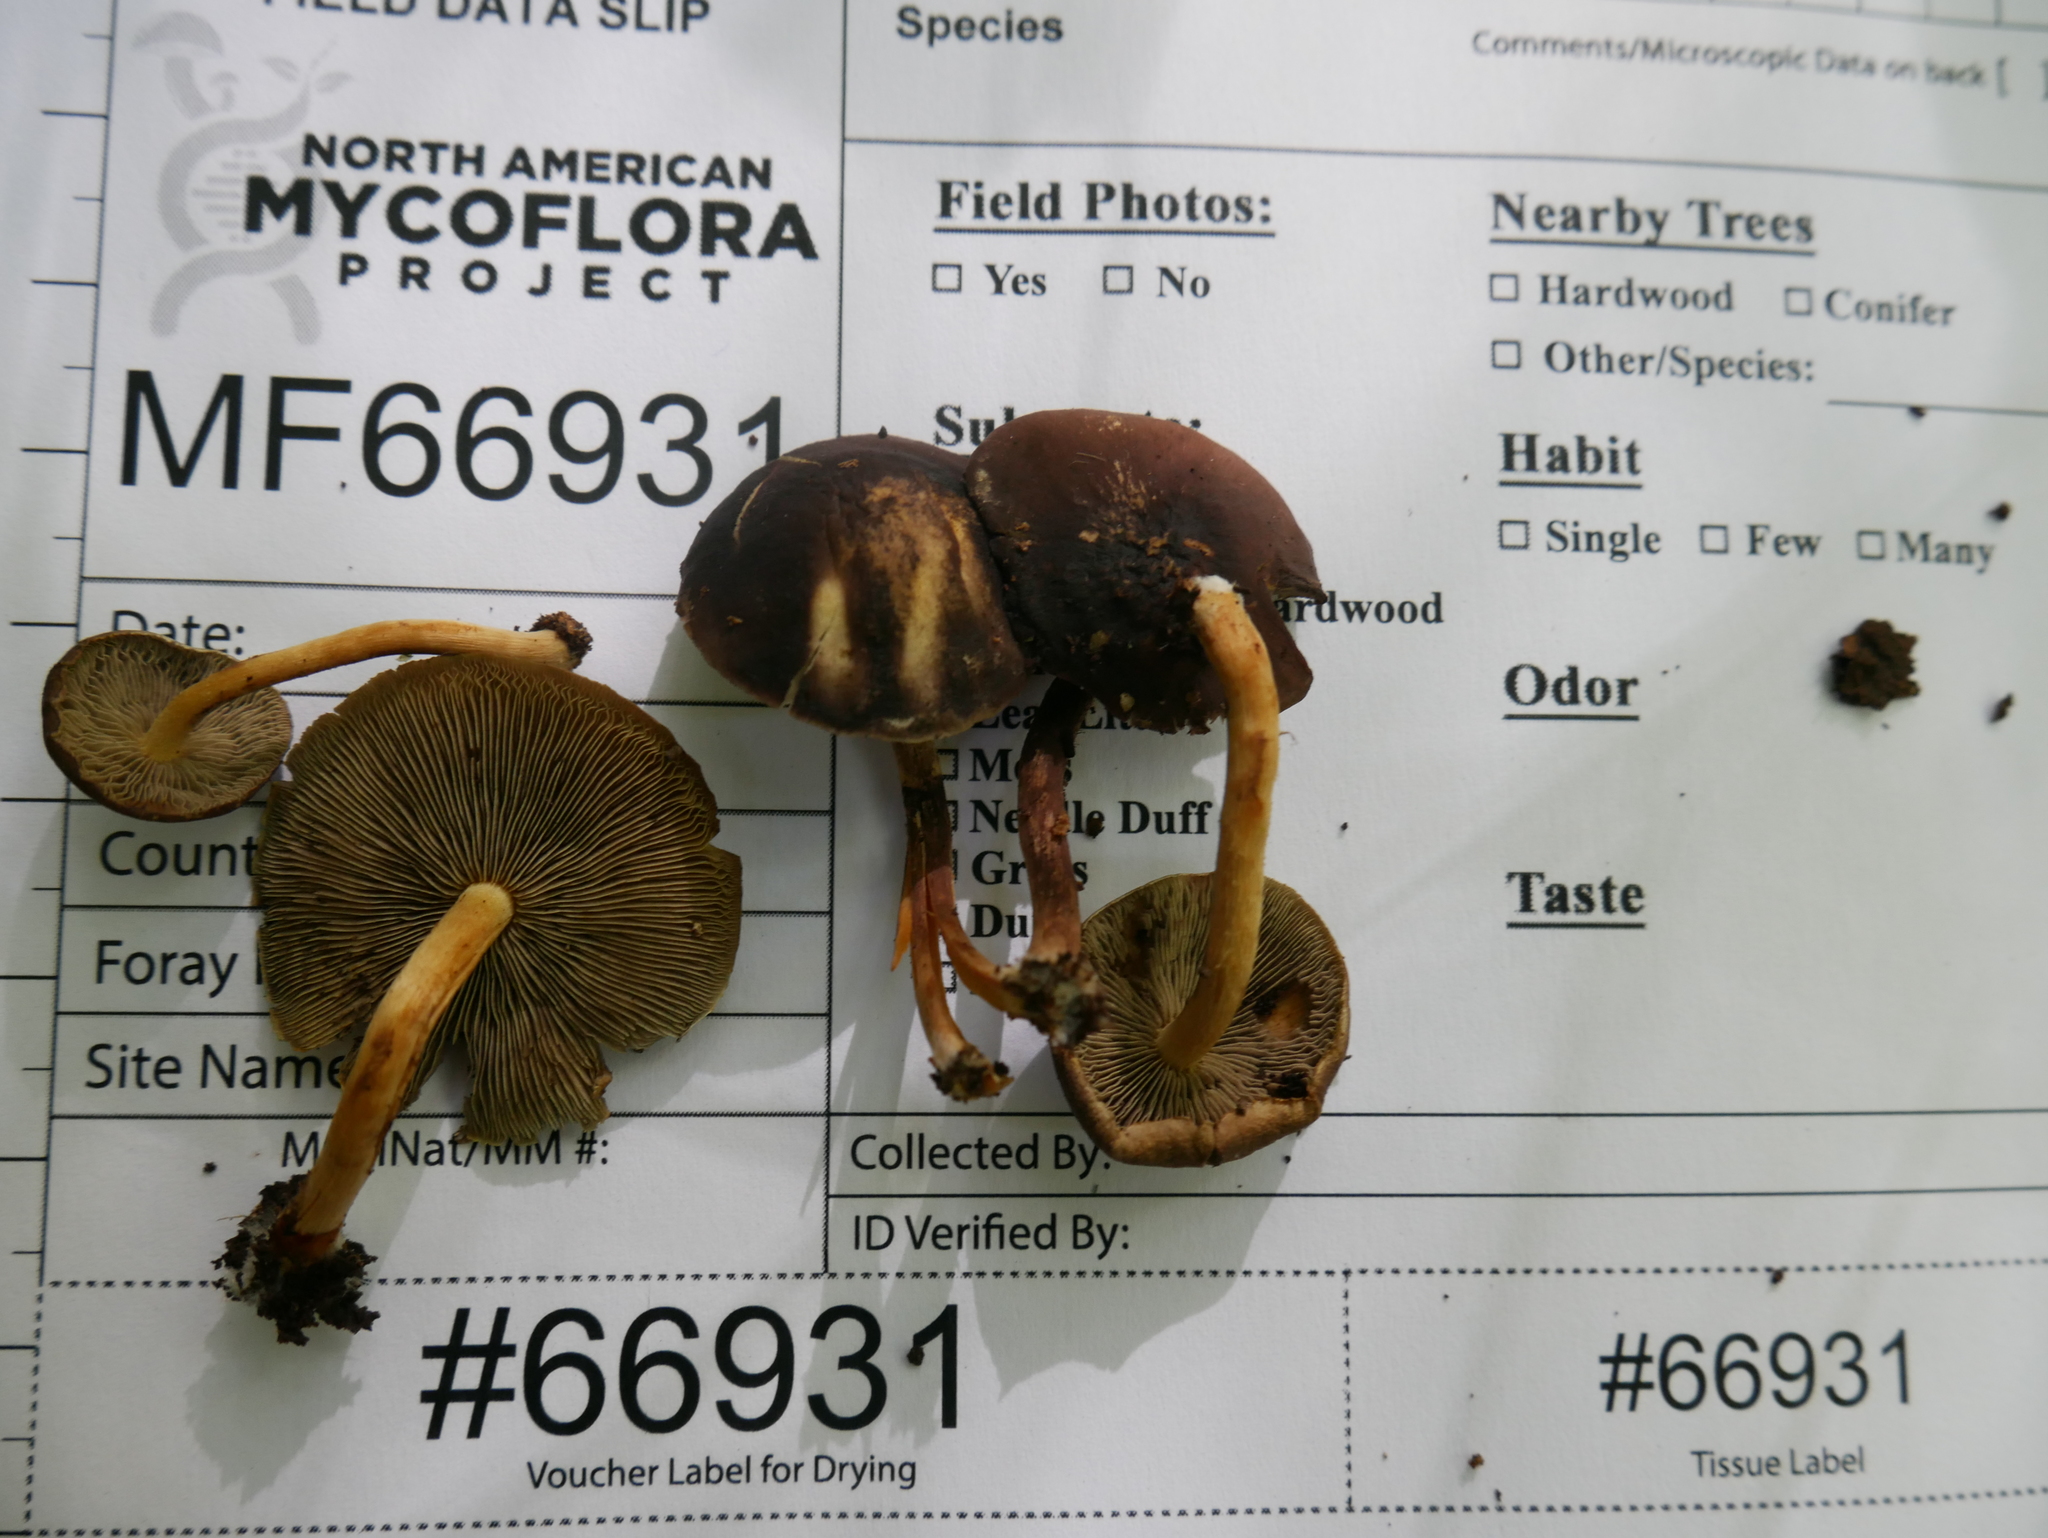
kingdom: Fungi
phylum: Basidiomycota
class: Agaricomycetes
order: Agaricales
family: Strophariaceae
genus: Hypholoma
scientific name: Hypholoma fasciculare
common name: Sulphur tuft
